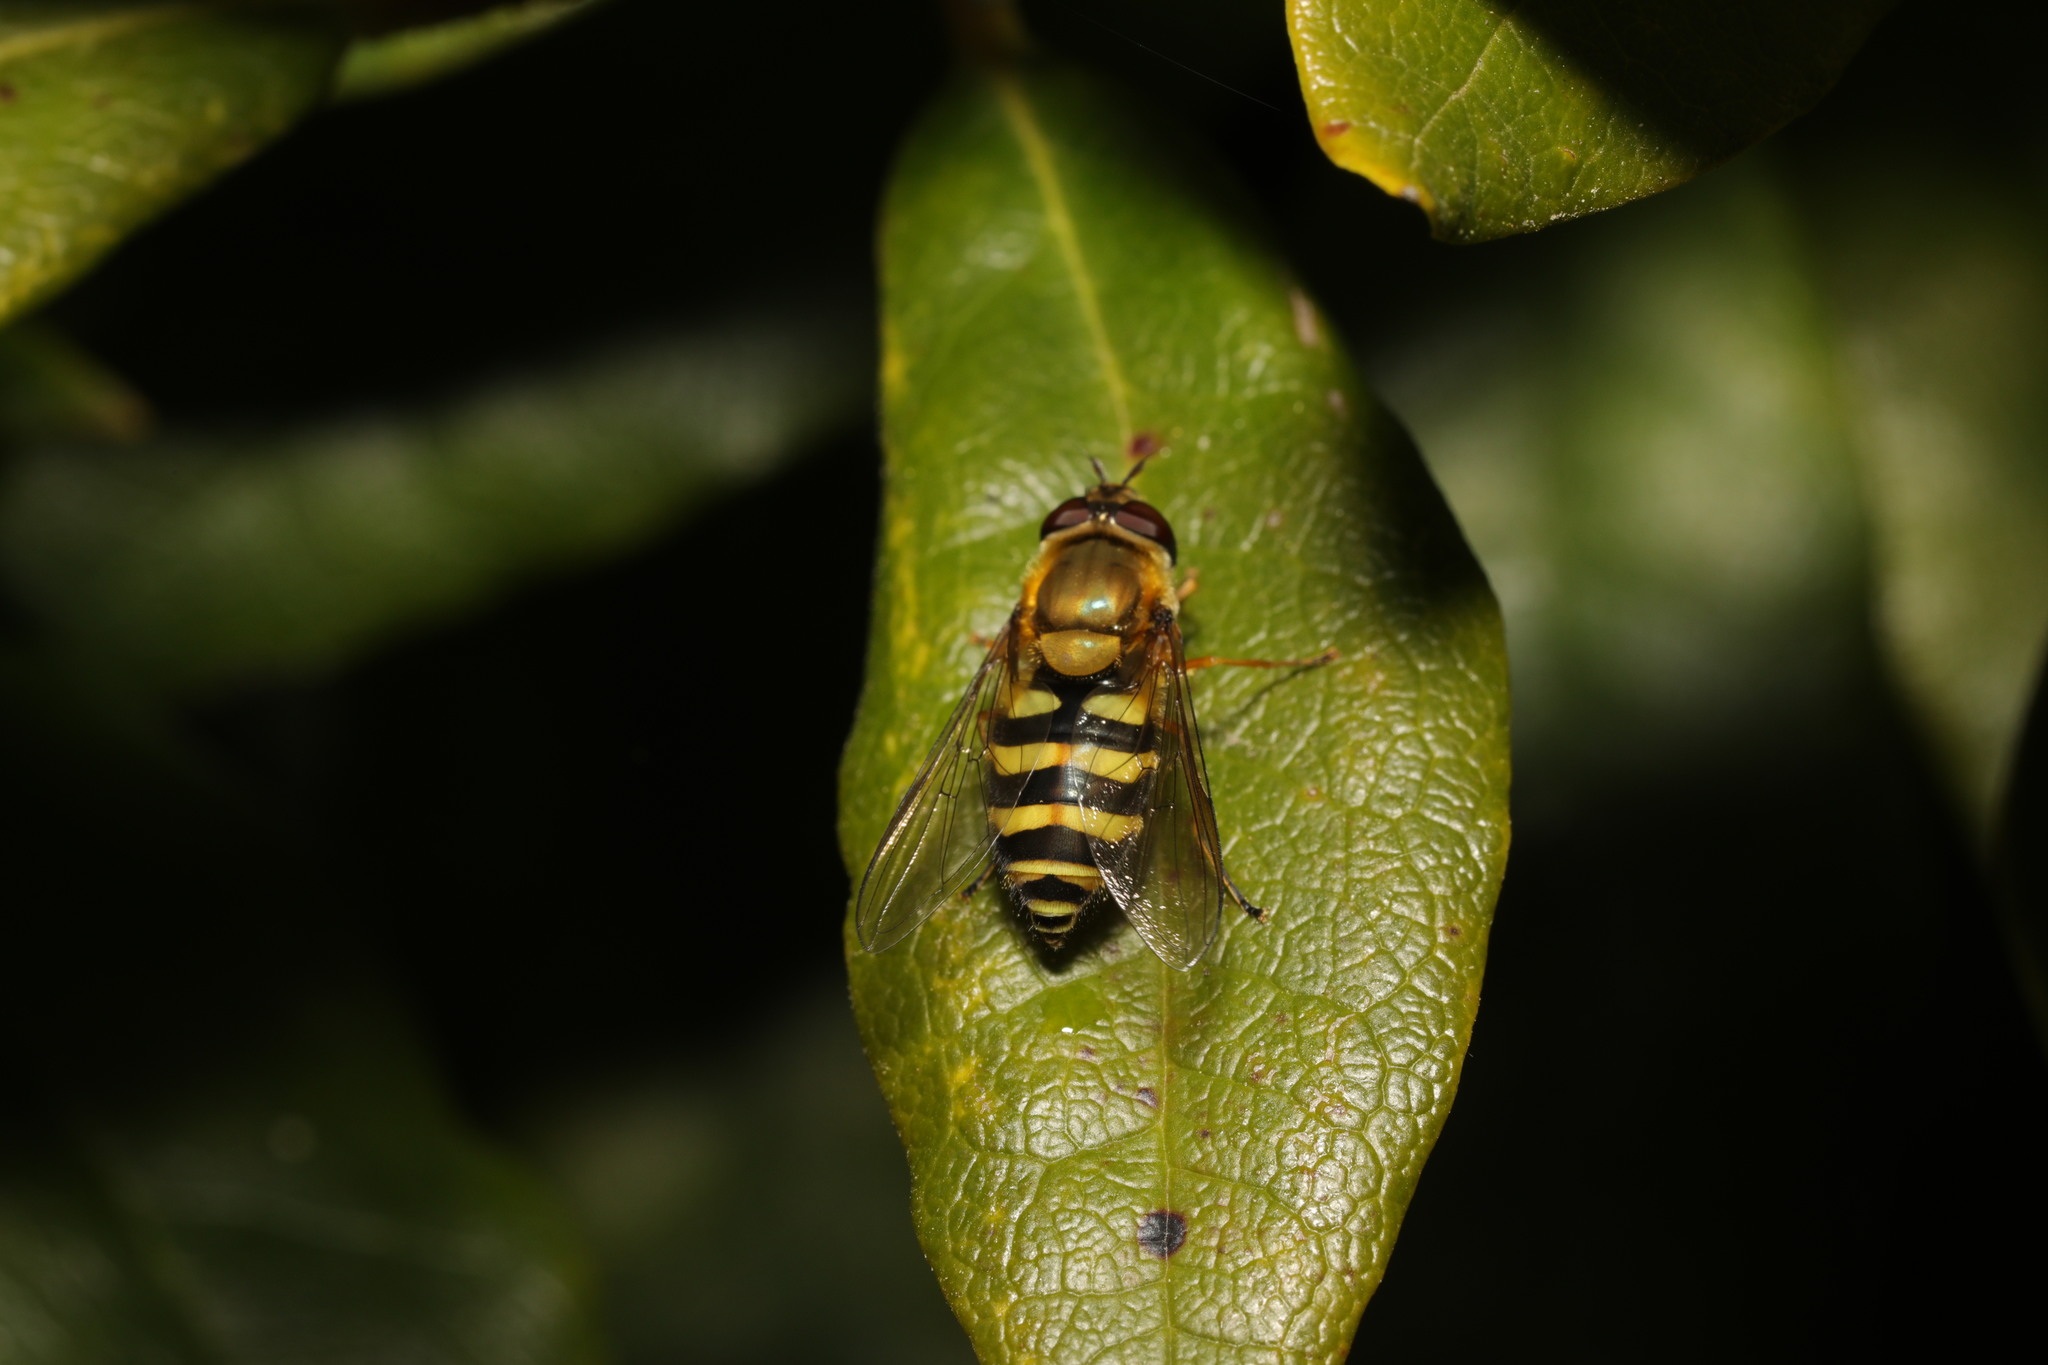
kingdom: Animalia
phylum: Arthropoda
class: Insecta
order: Diptera
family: Syrphidae
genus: Syrphus
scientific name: Syrphus
